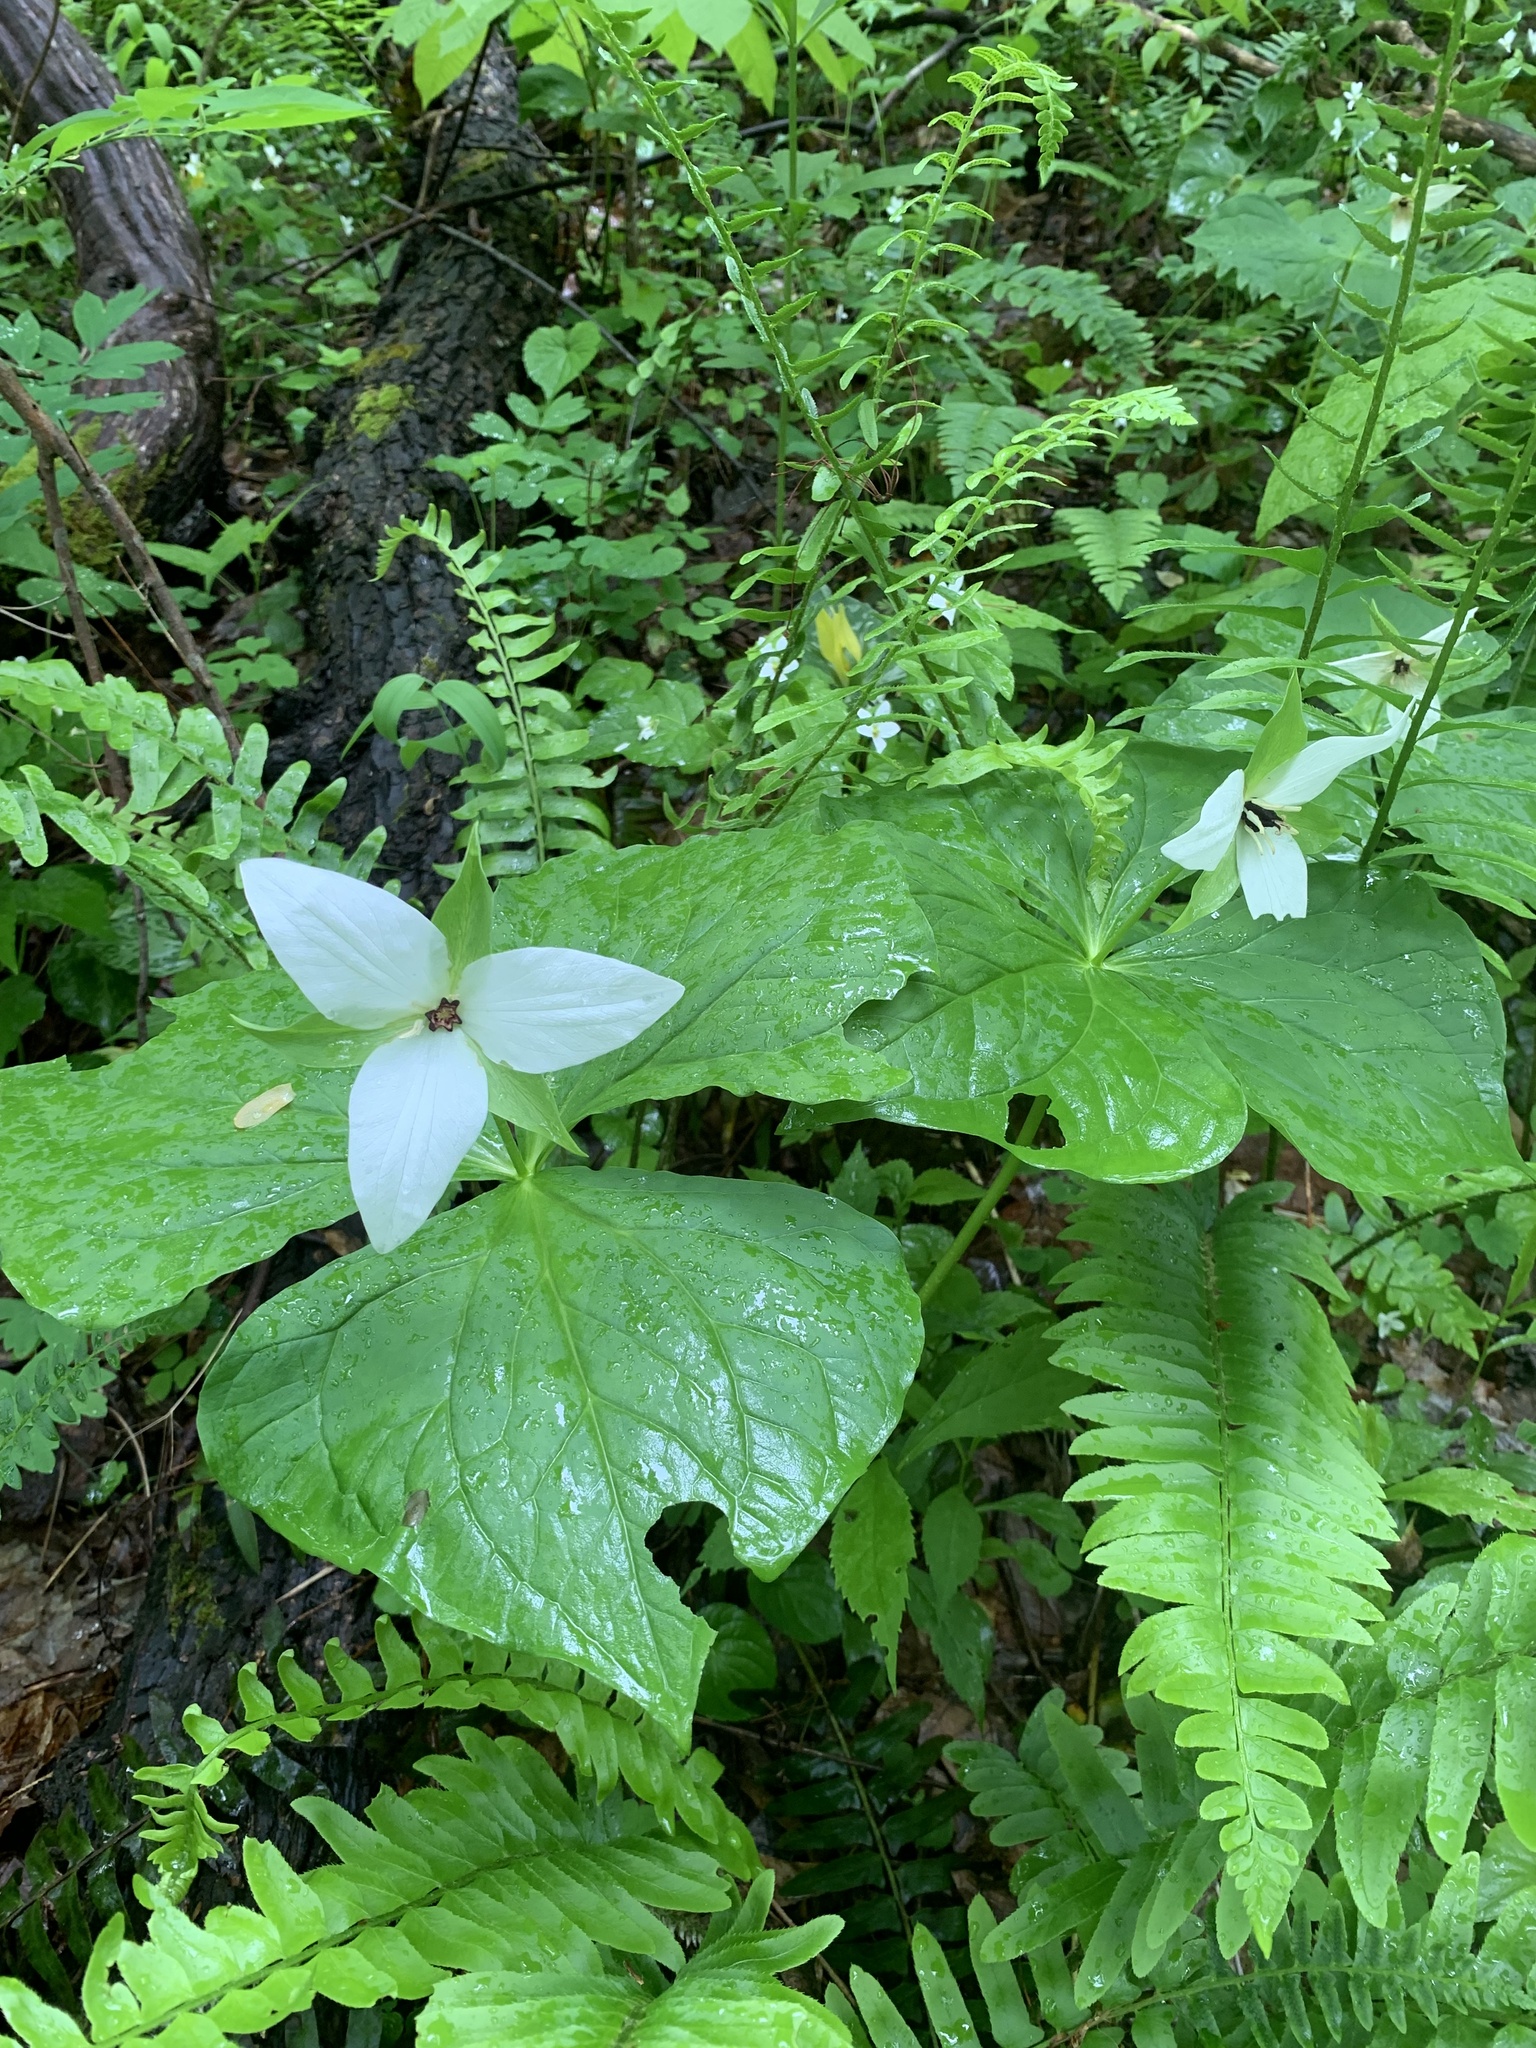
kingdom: Plantae
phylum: Tracheophyta
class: Liliopsida
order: Liliales
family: Melanthiaceae
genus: Trillium
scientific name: Trillium erectum
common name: Purple trillium
